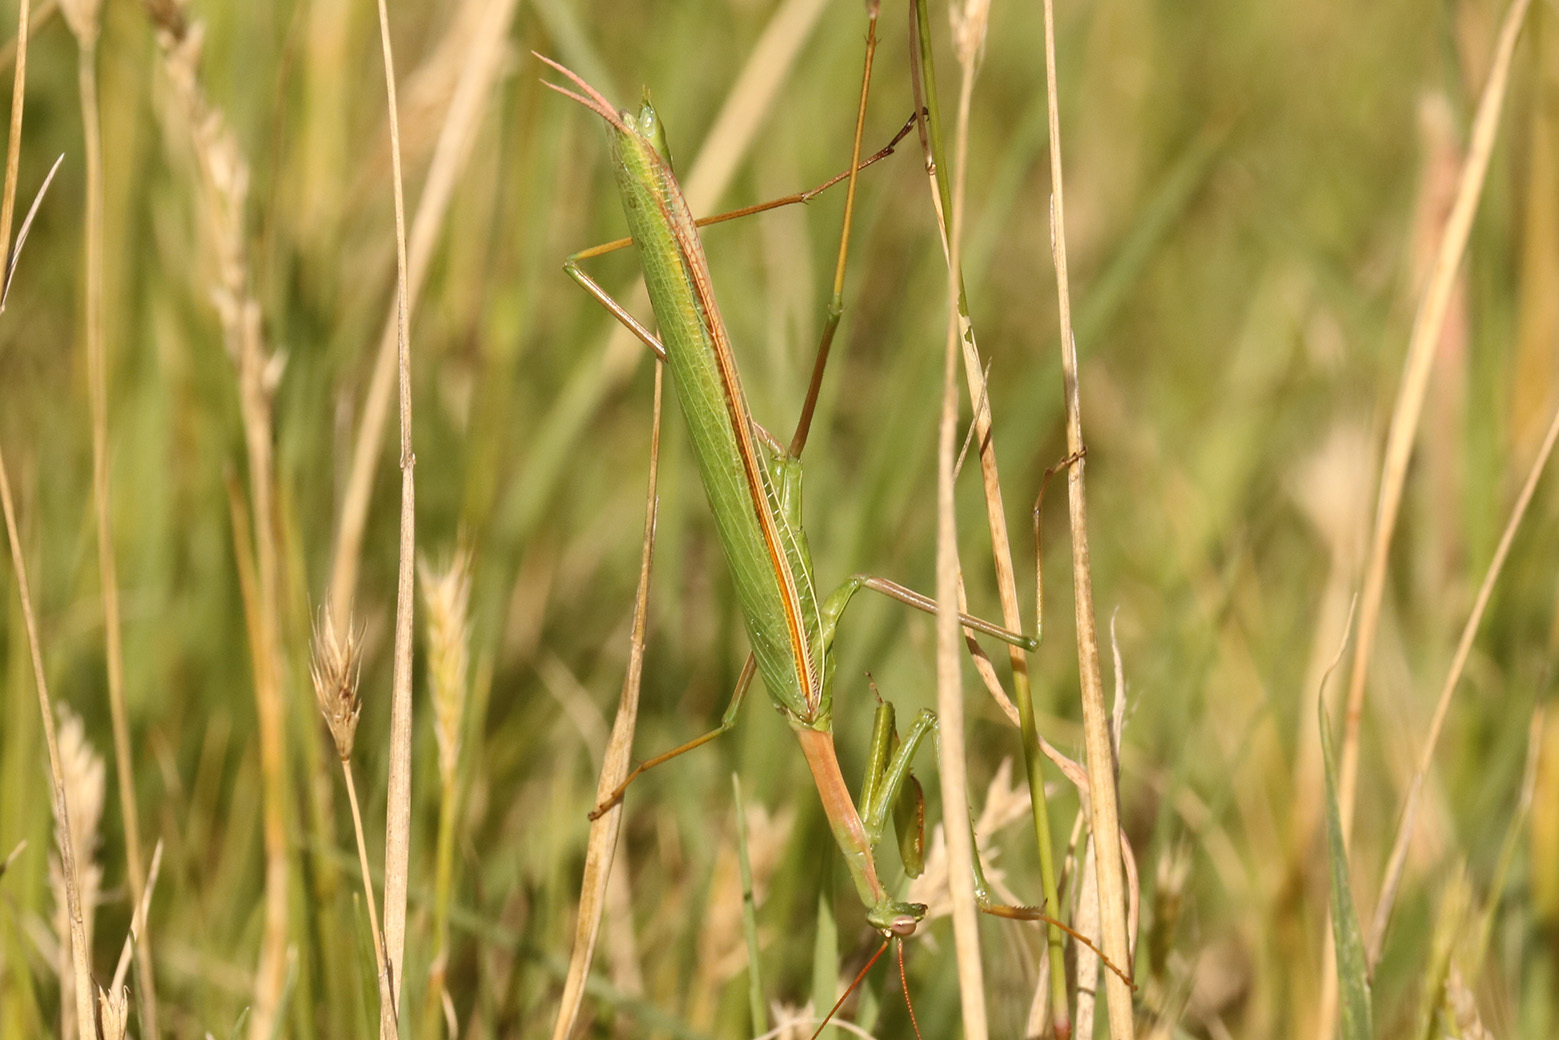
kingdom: Animalia
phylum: Arthropoda
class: Insecta
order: Mantodea
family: Coptopterygidae
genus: Coptopteryx
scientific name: Coptopteryx argentina
